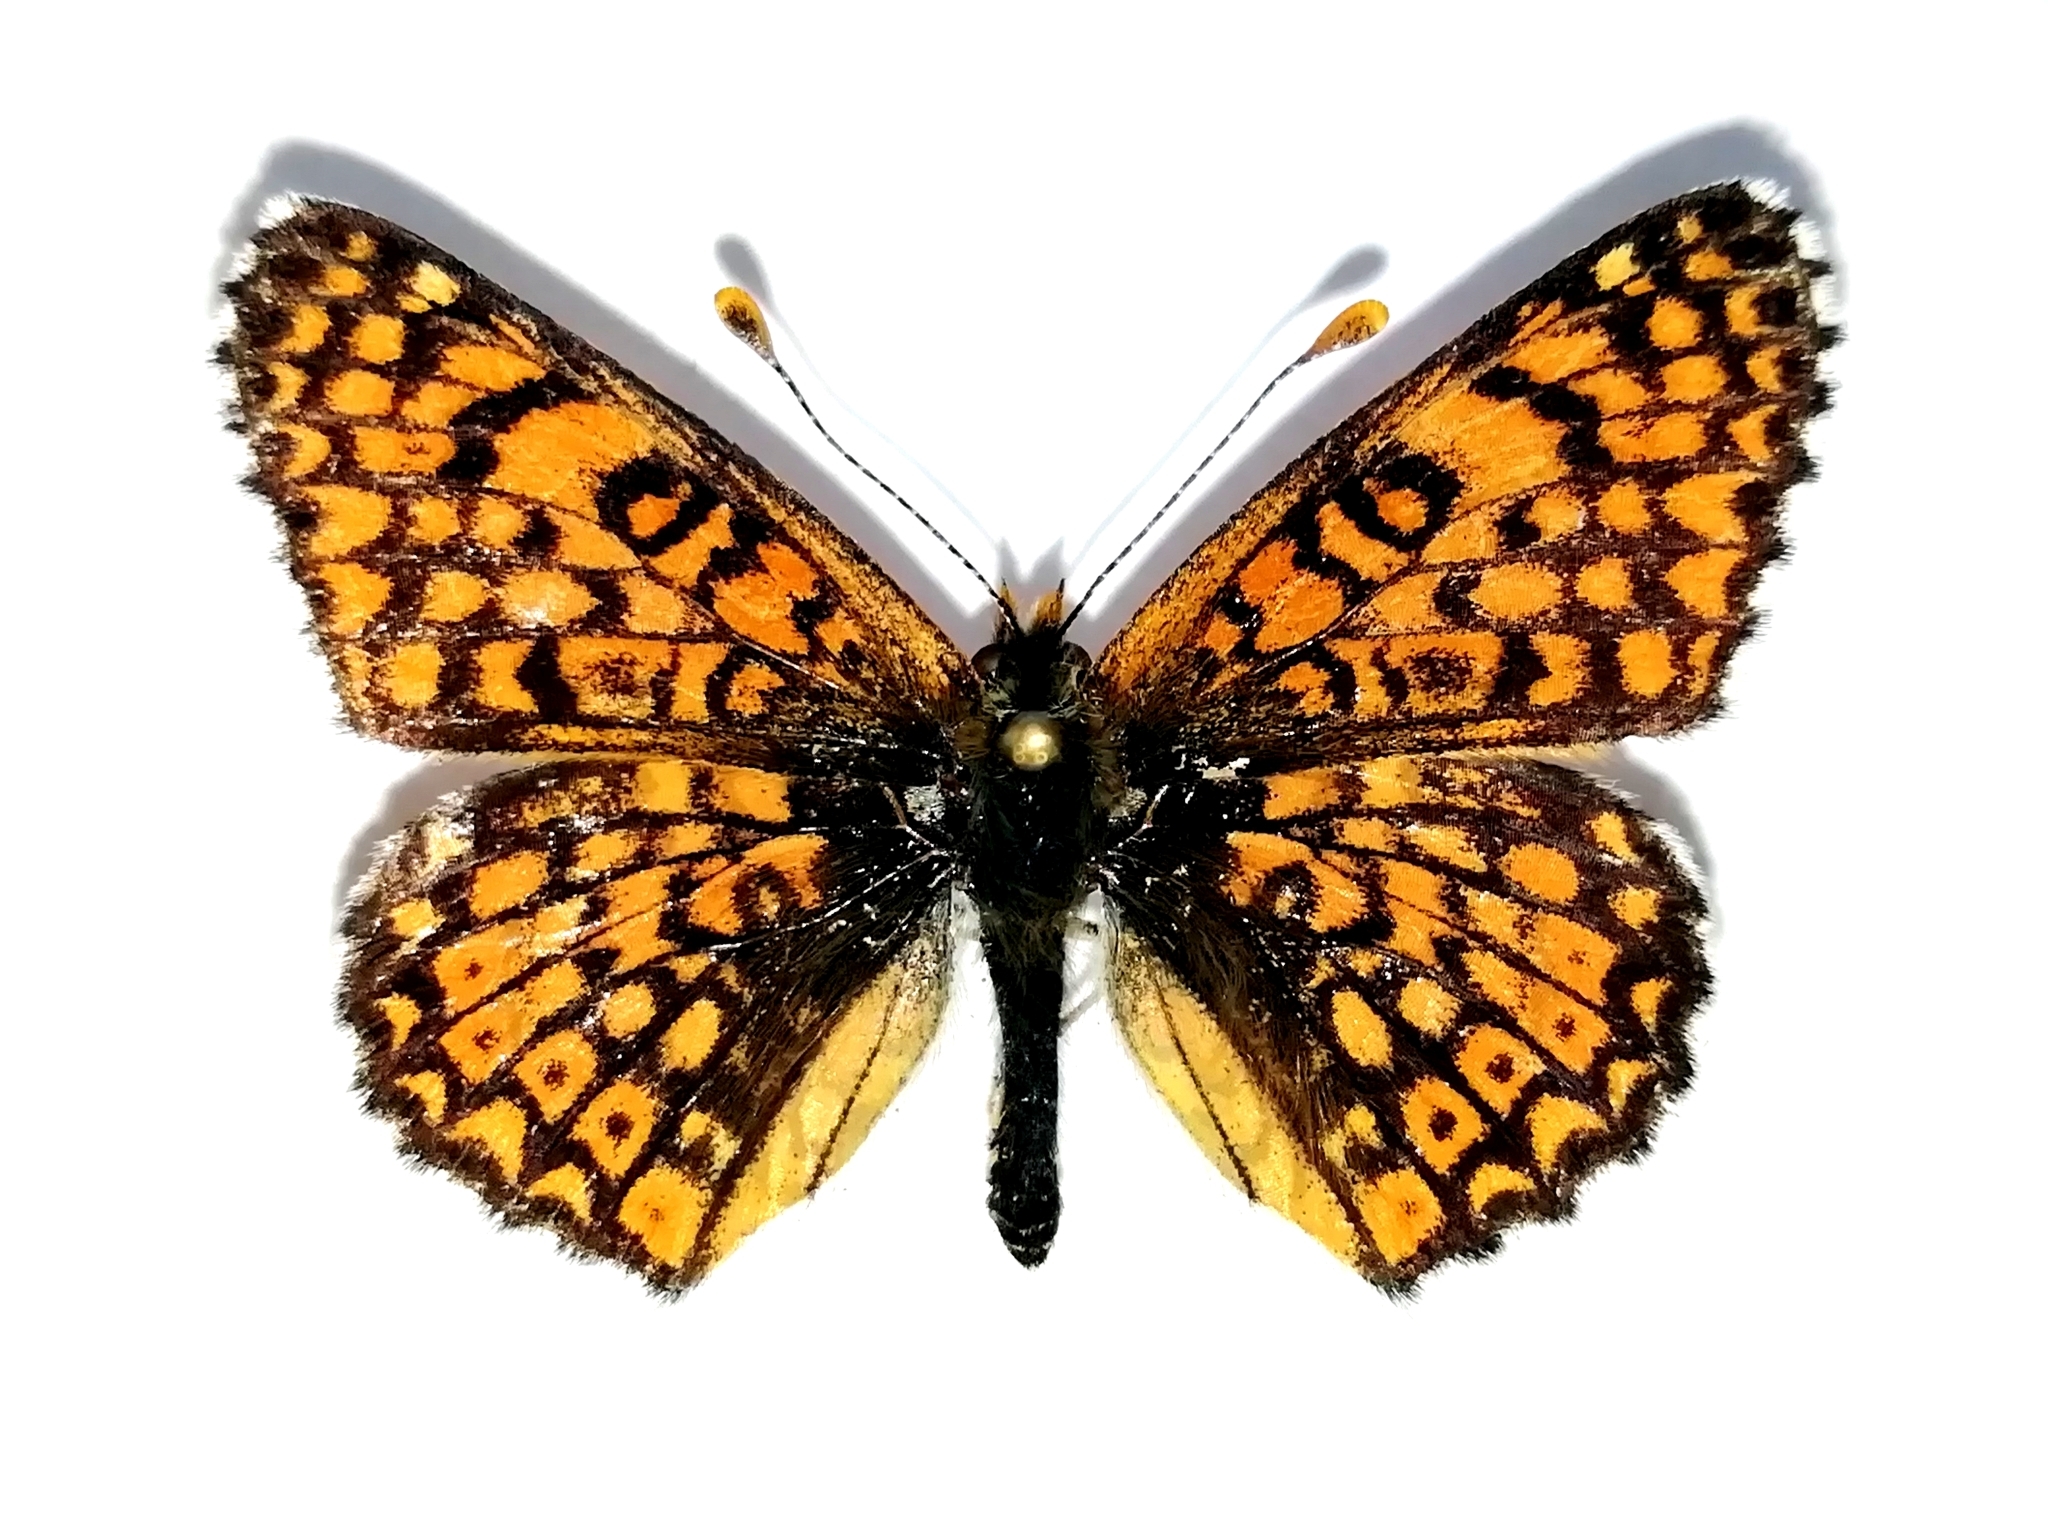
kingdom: Animalia
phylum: Arthropoda
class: Insecta
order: Lepidoptera
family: Nymphalidae
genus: Melitaea
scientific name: Melitaea cinxia
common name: Glanville fritillary
